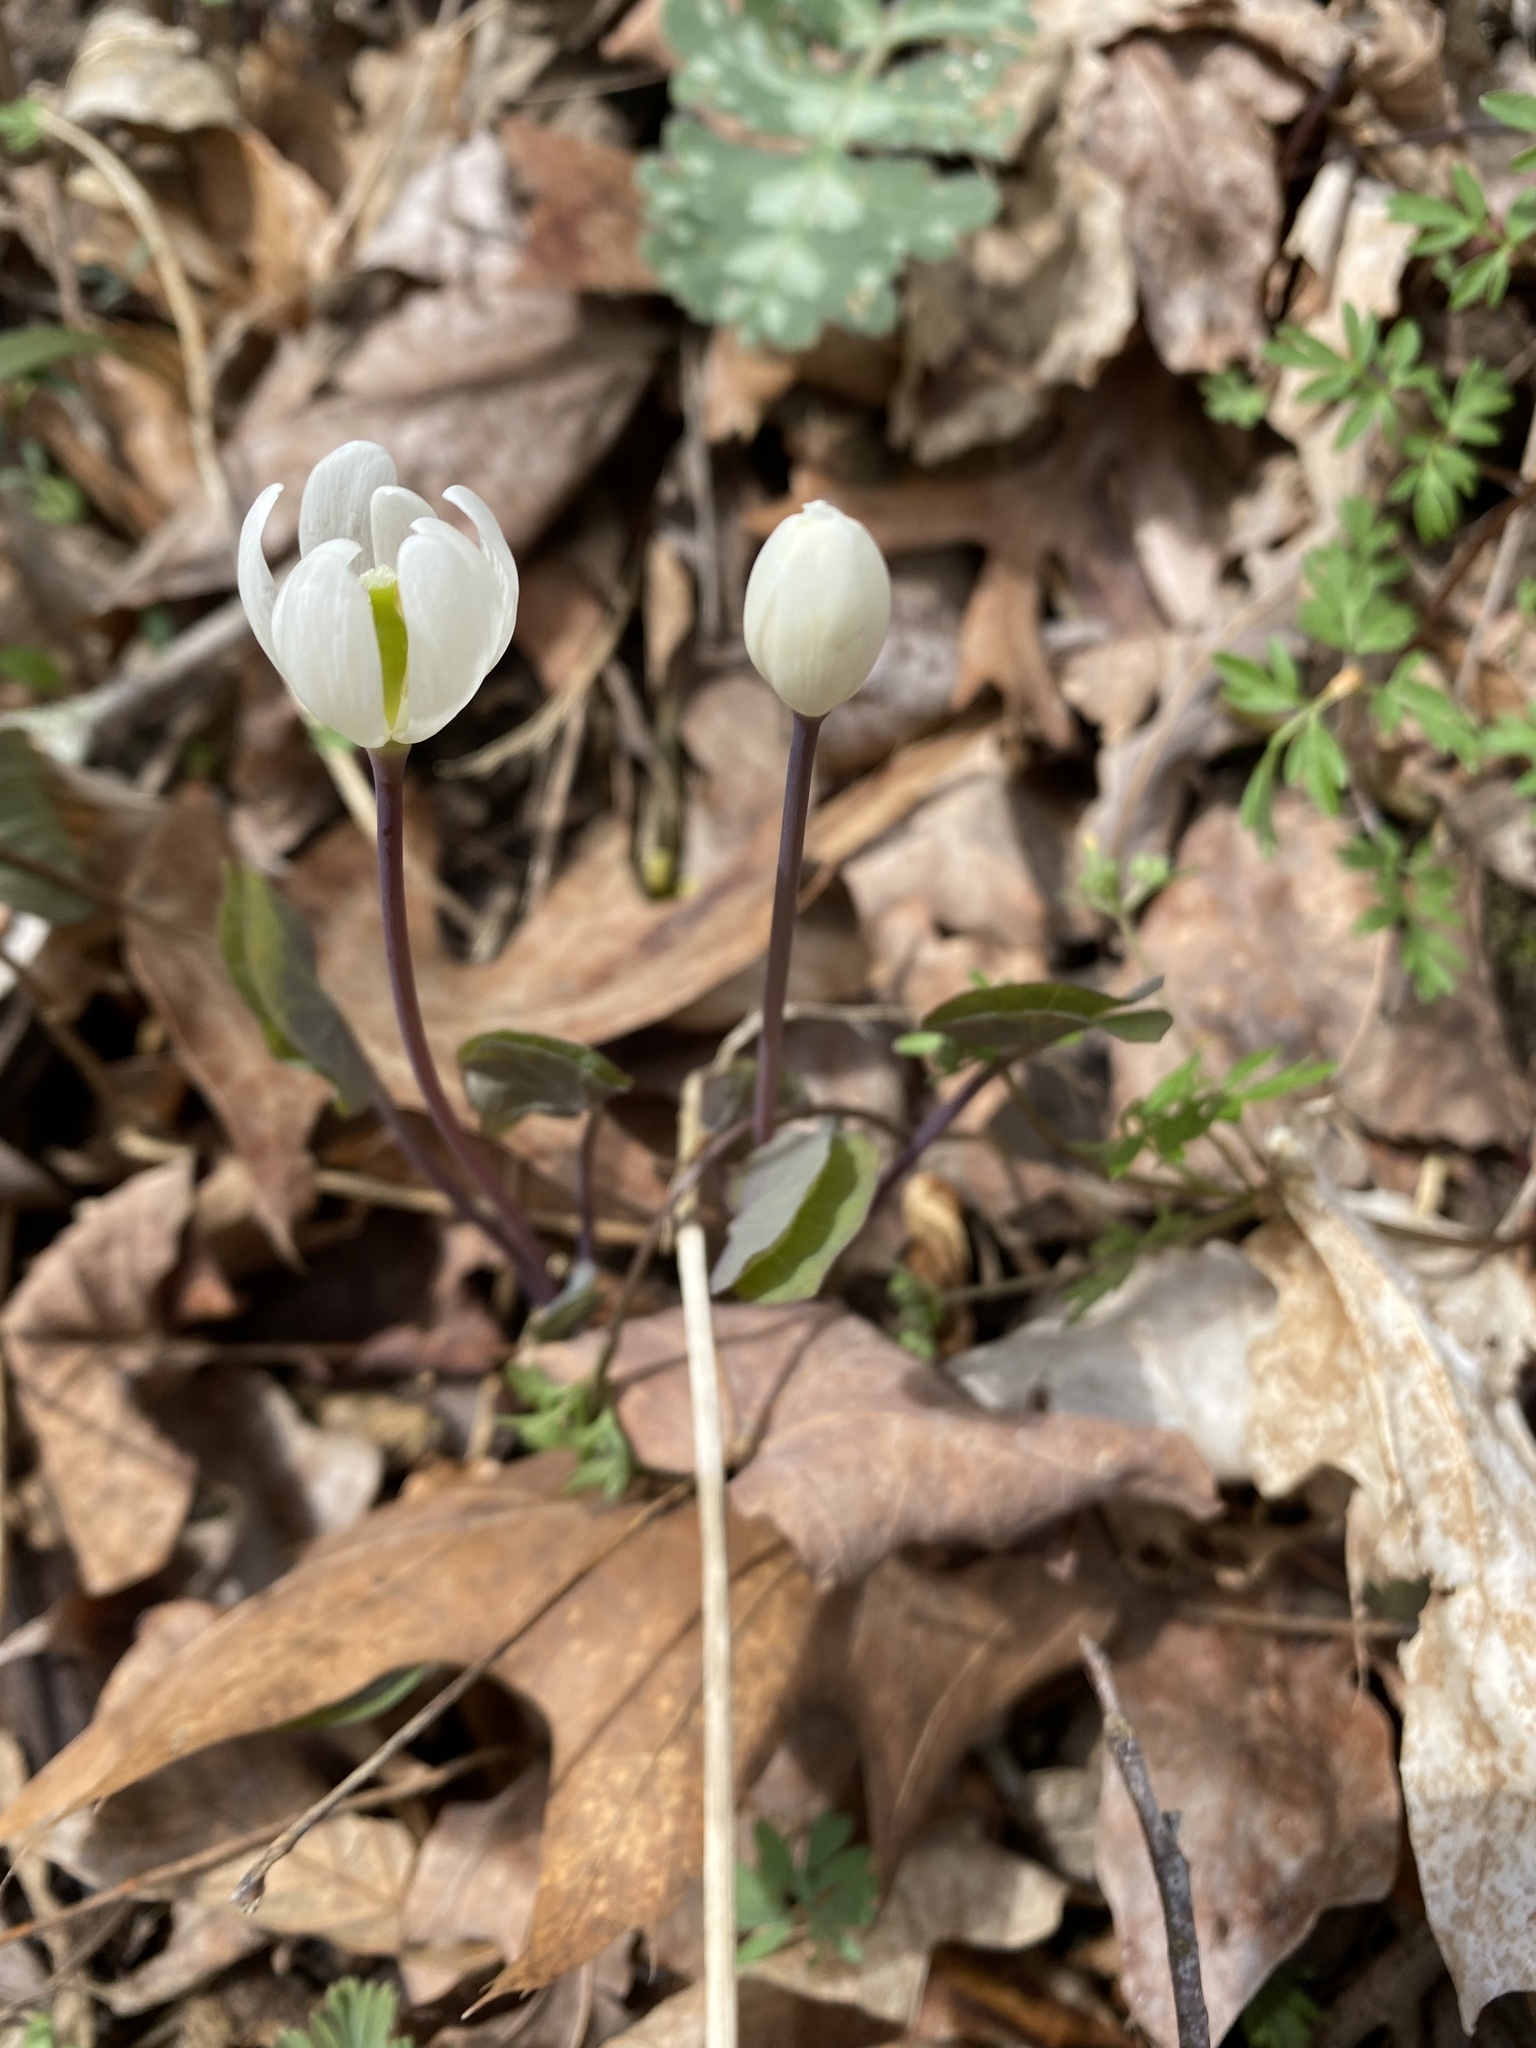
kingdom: Plantae
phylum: Tracheophyta
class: Magnoliopsida
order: Ranunculales
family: Berberidaceae
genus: Jeffersonia
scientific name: Jeffersonia diphylla
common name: Rheumatism-root
